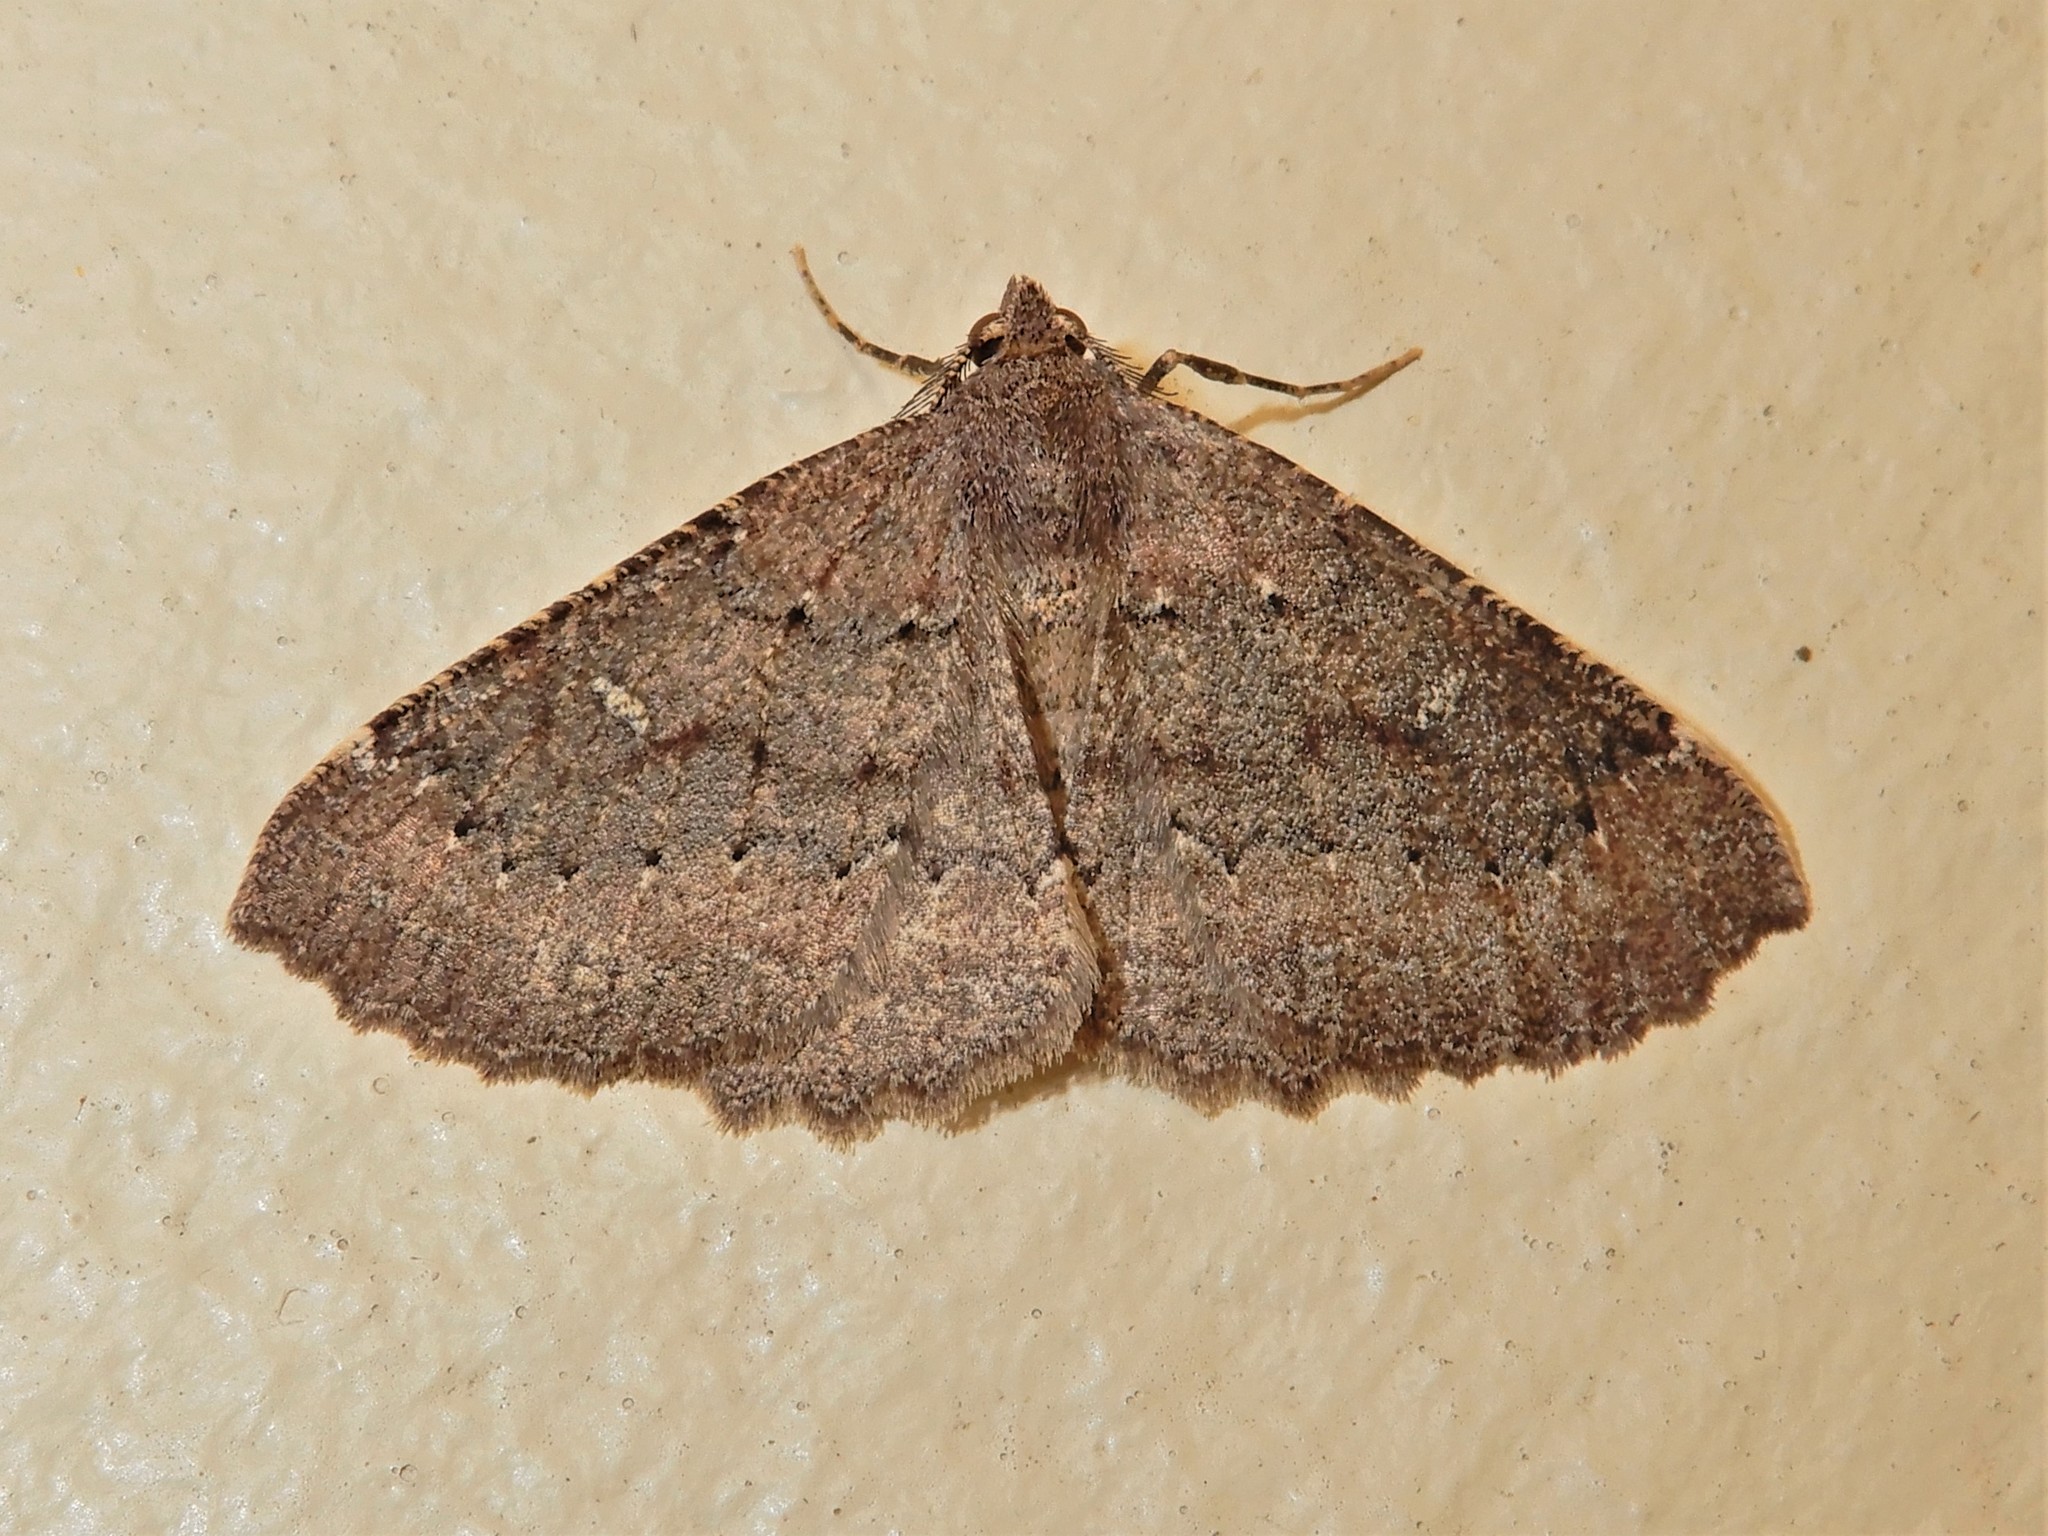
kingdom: Animalia
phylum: Arthropoda
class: Insecta
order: Lepidoptera
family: Geometridae
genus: Cleora
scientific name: Cleora scriptaria
